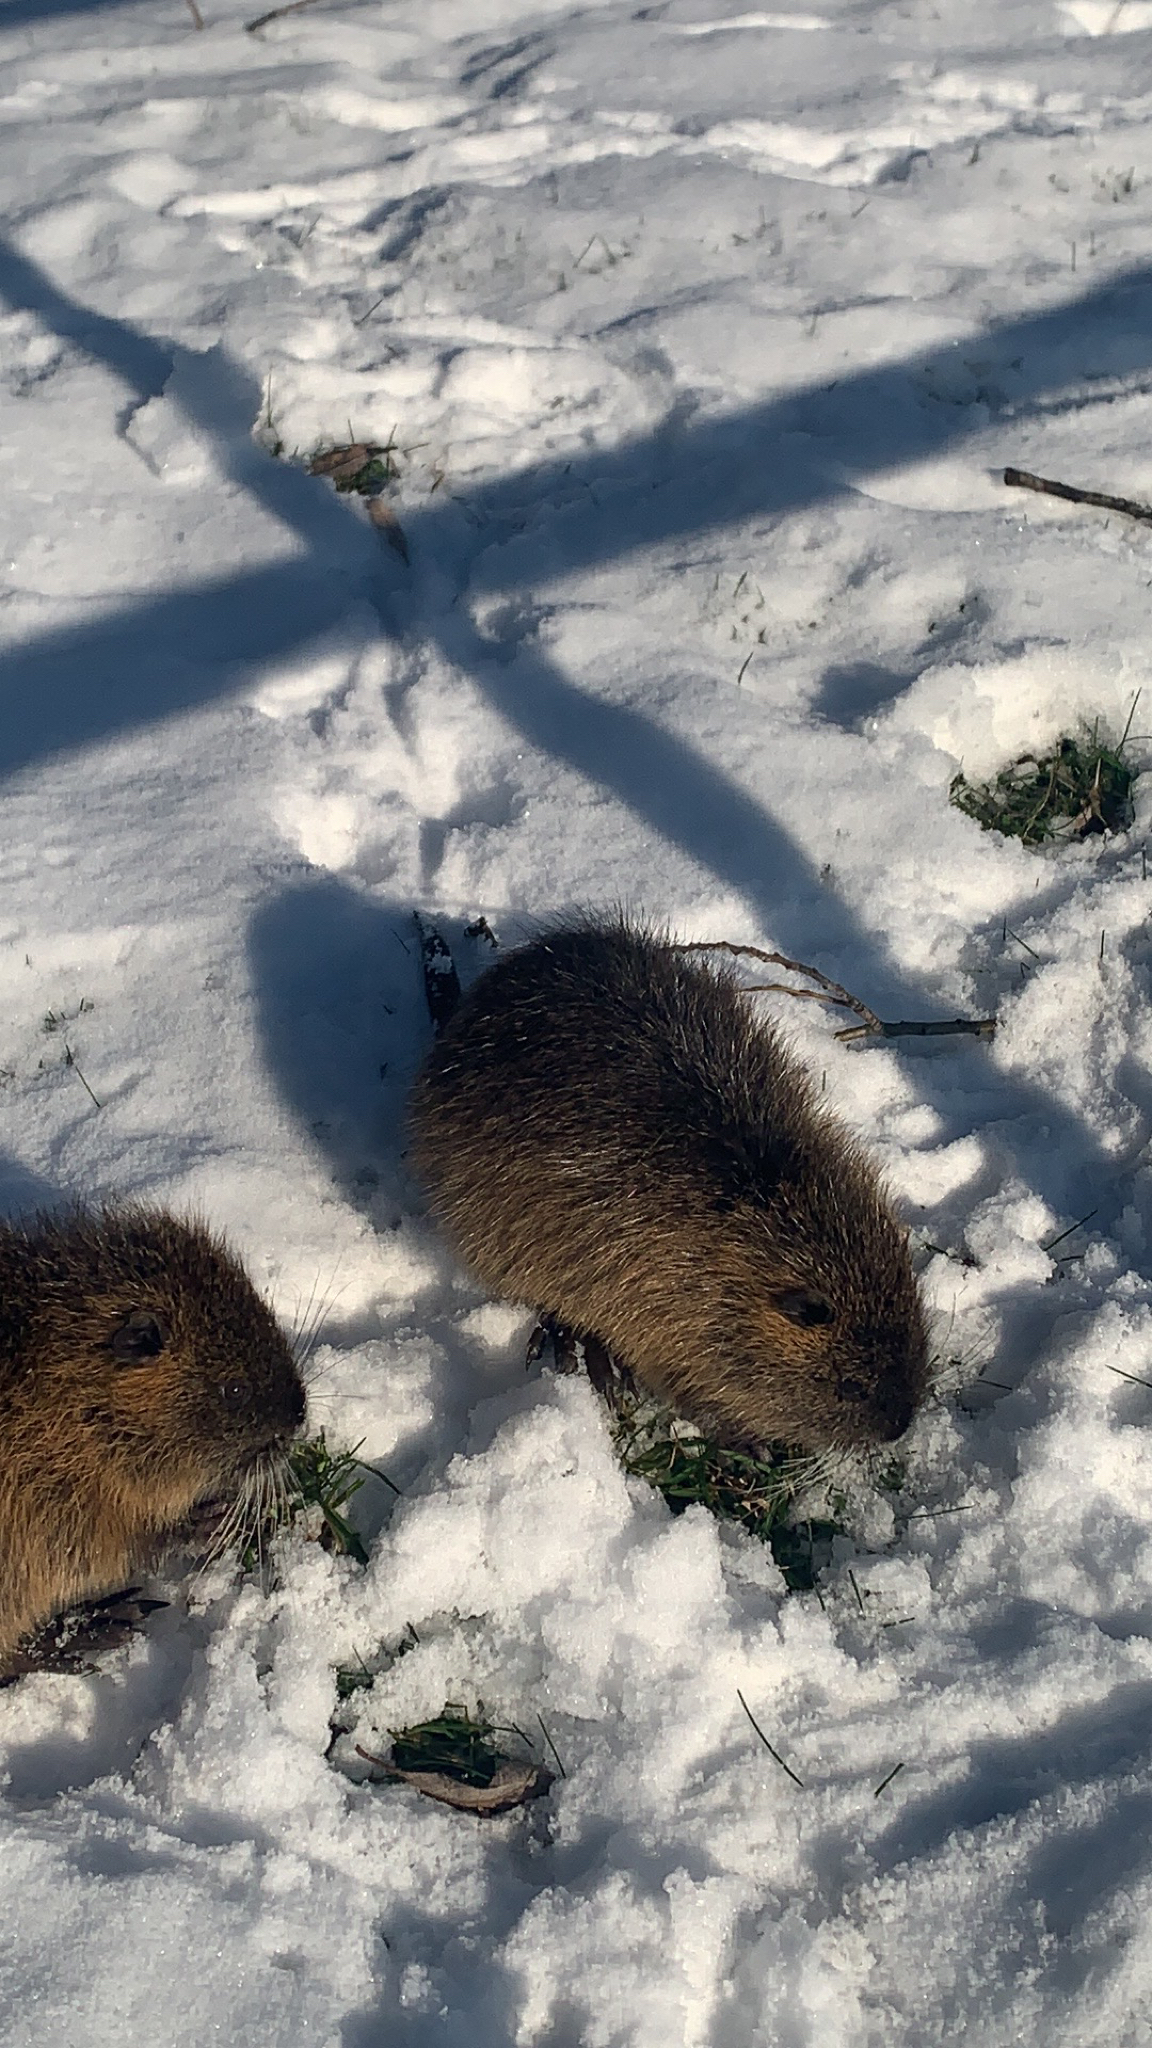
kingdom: Animalia
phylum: Chordata
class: Mammalia
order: Rodentia
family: Myocastoridae
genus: Myocastor
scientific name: Myocastor coypus
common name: Coypu
